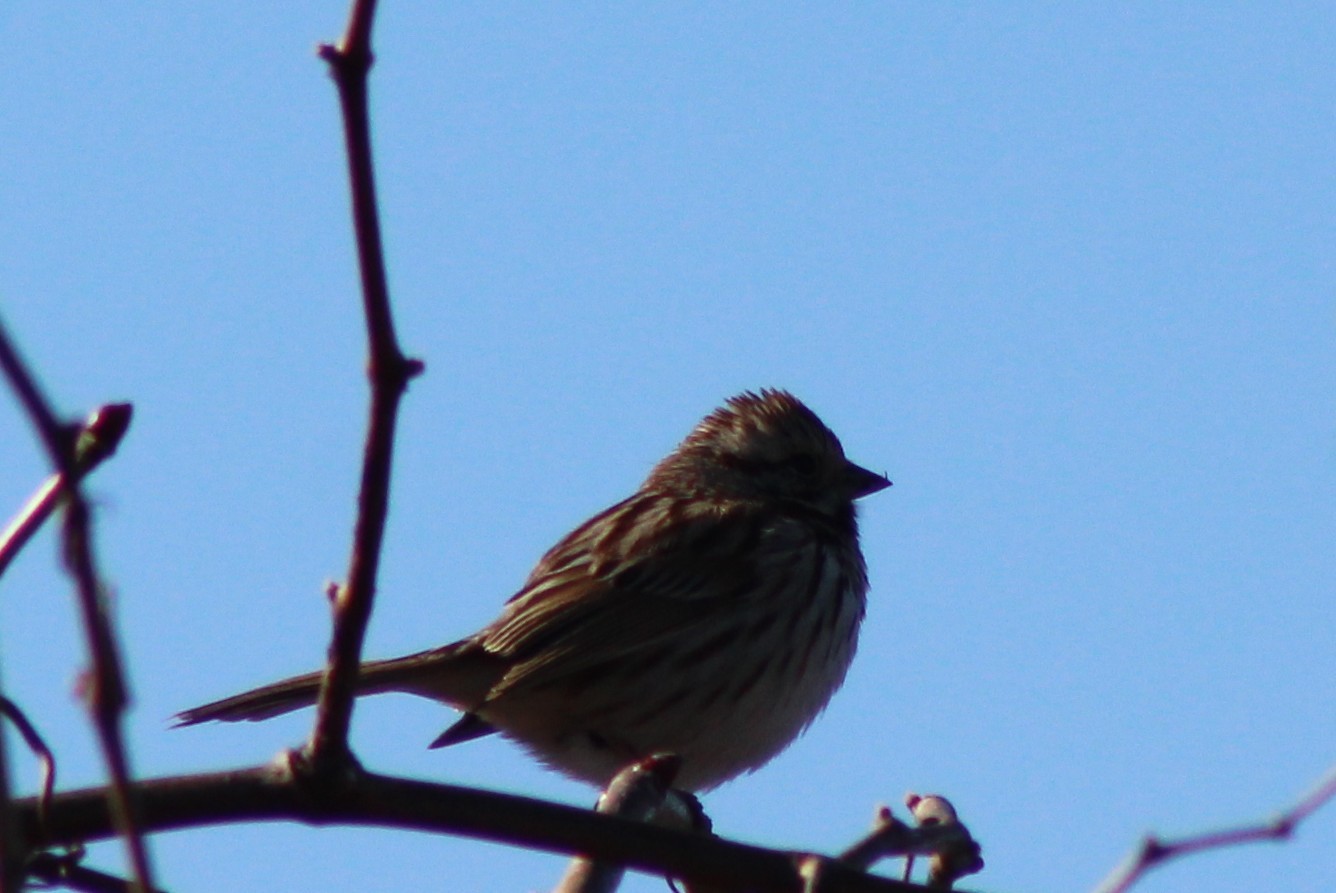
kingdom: Animalia
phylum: Chordata
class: Aves
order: Passeriformes
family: Passerellidae
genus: Melospiza
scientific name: Melospiza melodia
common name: Song sparrow
